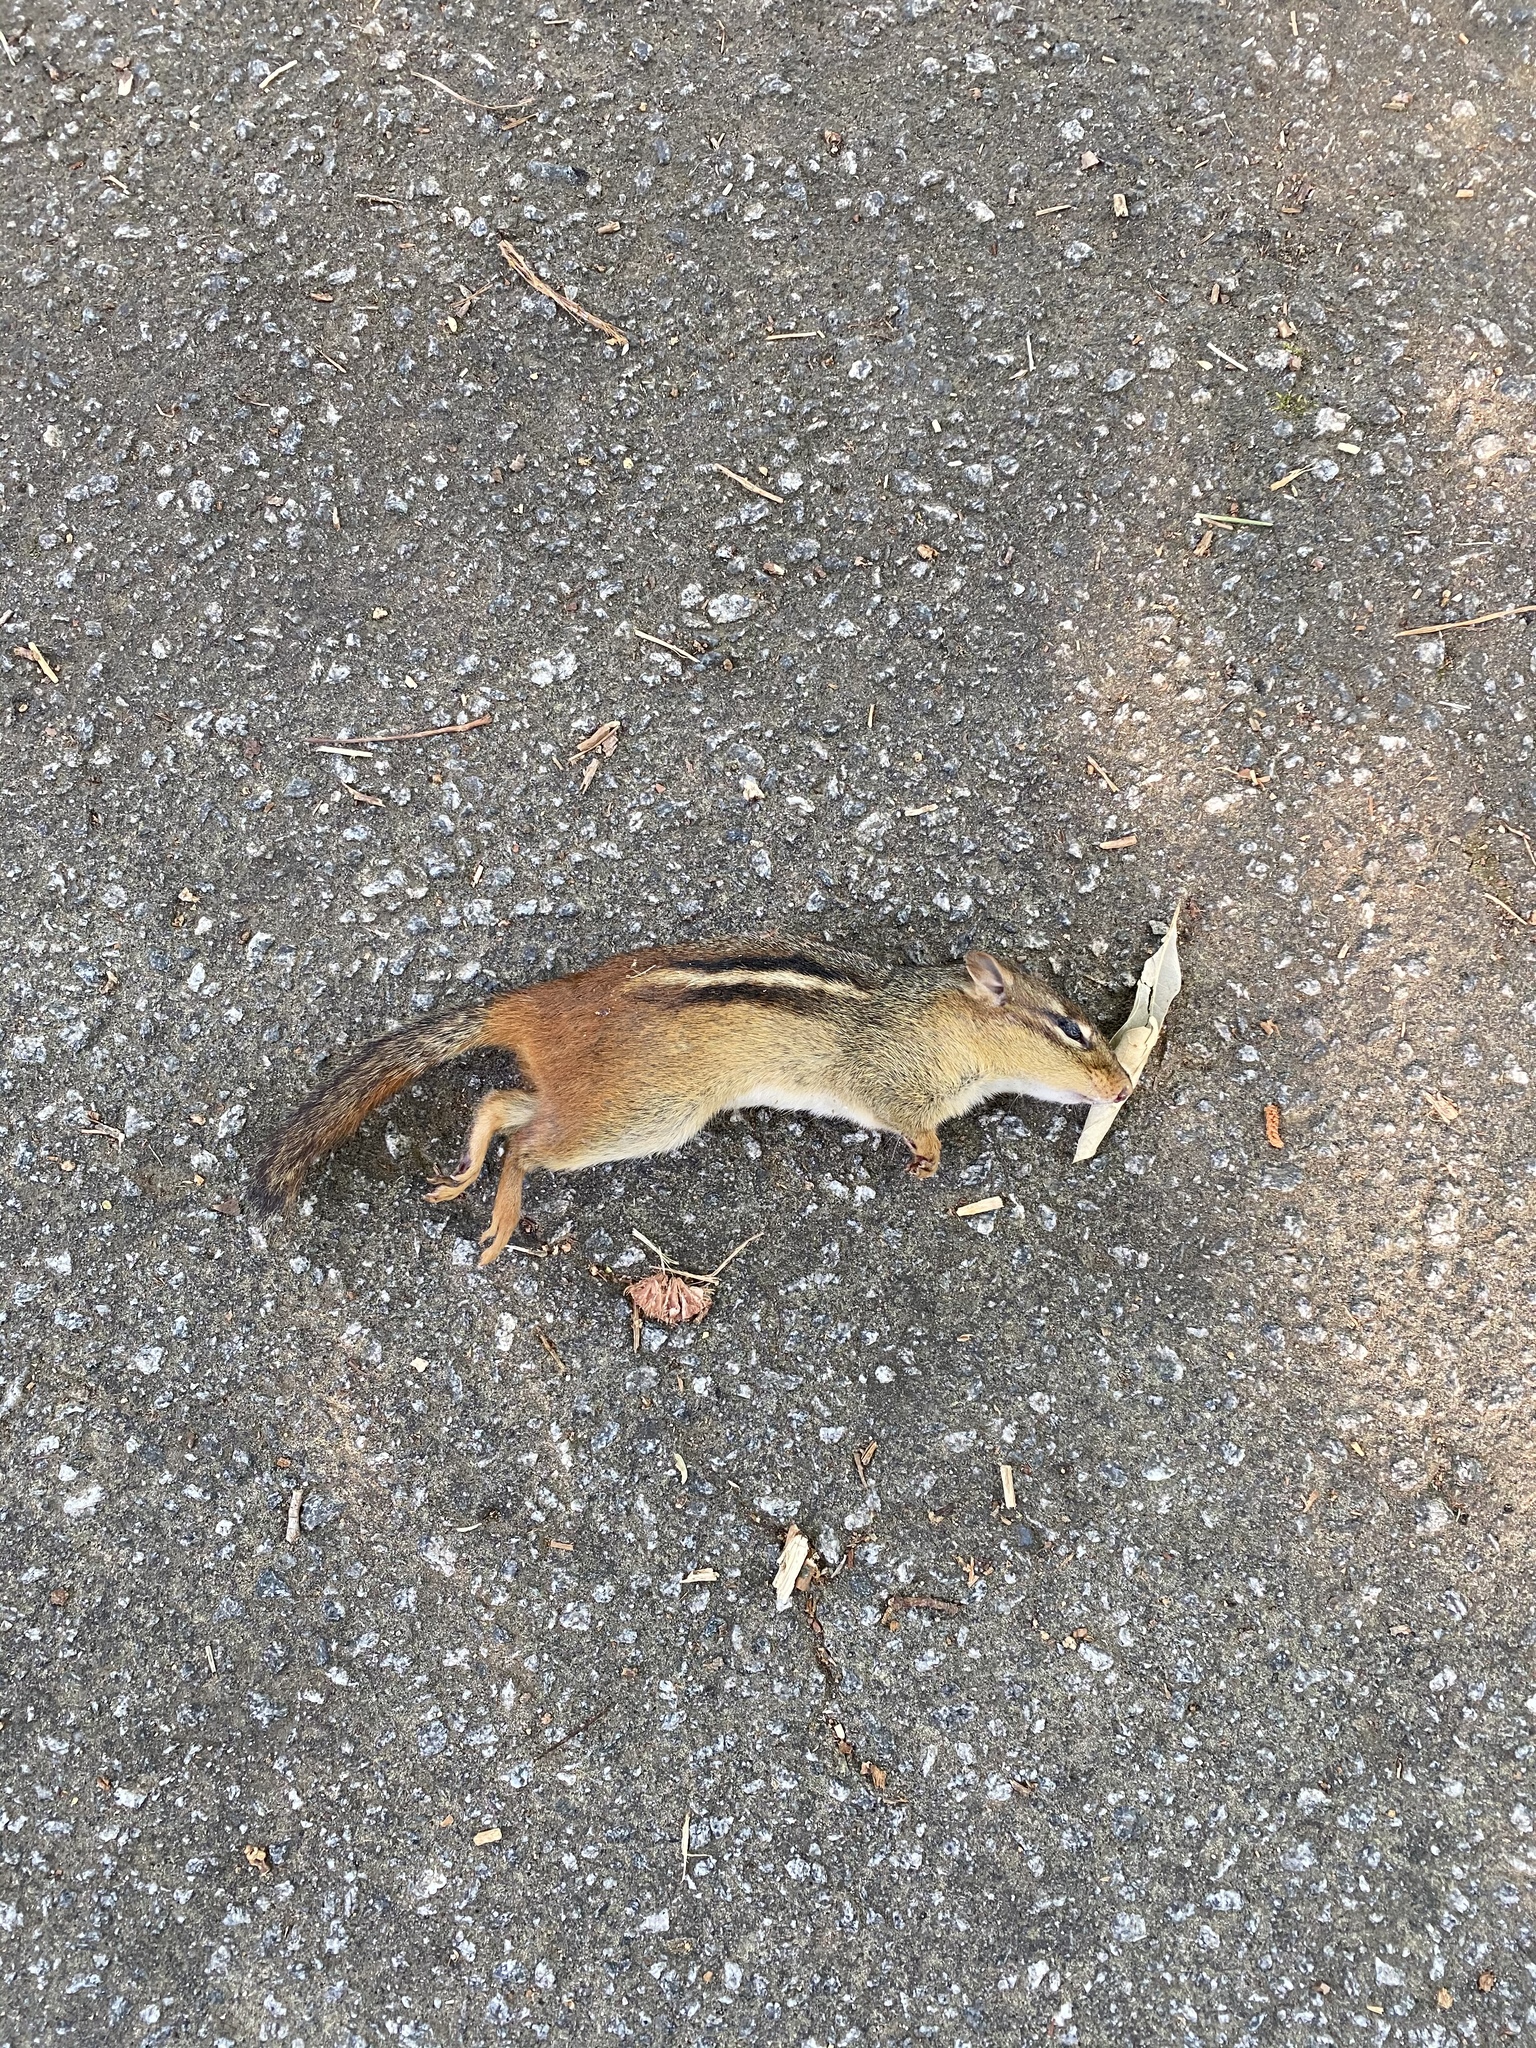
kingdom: Animalia
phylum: Chordata
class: Mammalia
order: Rodentia
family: Sciuridae
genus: Tamias
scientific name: Tamias striatus
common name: Eastern chipmunk
